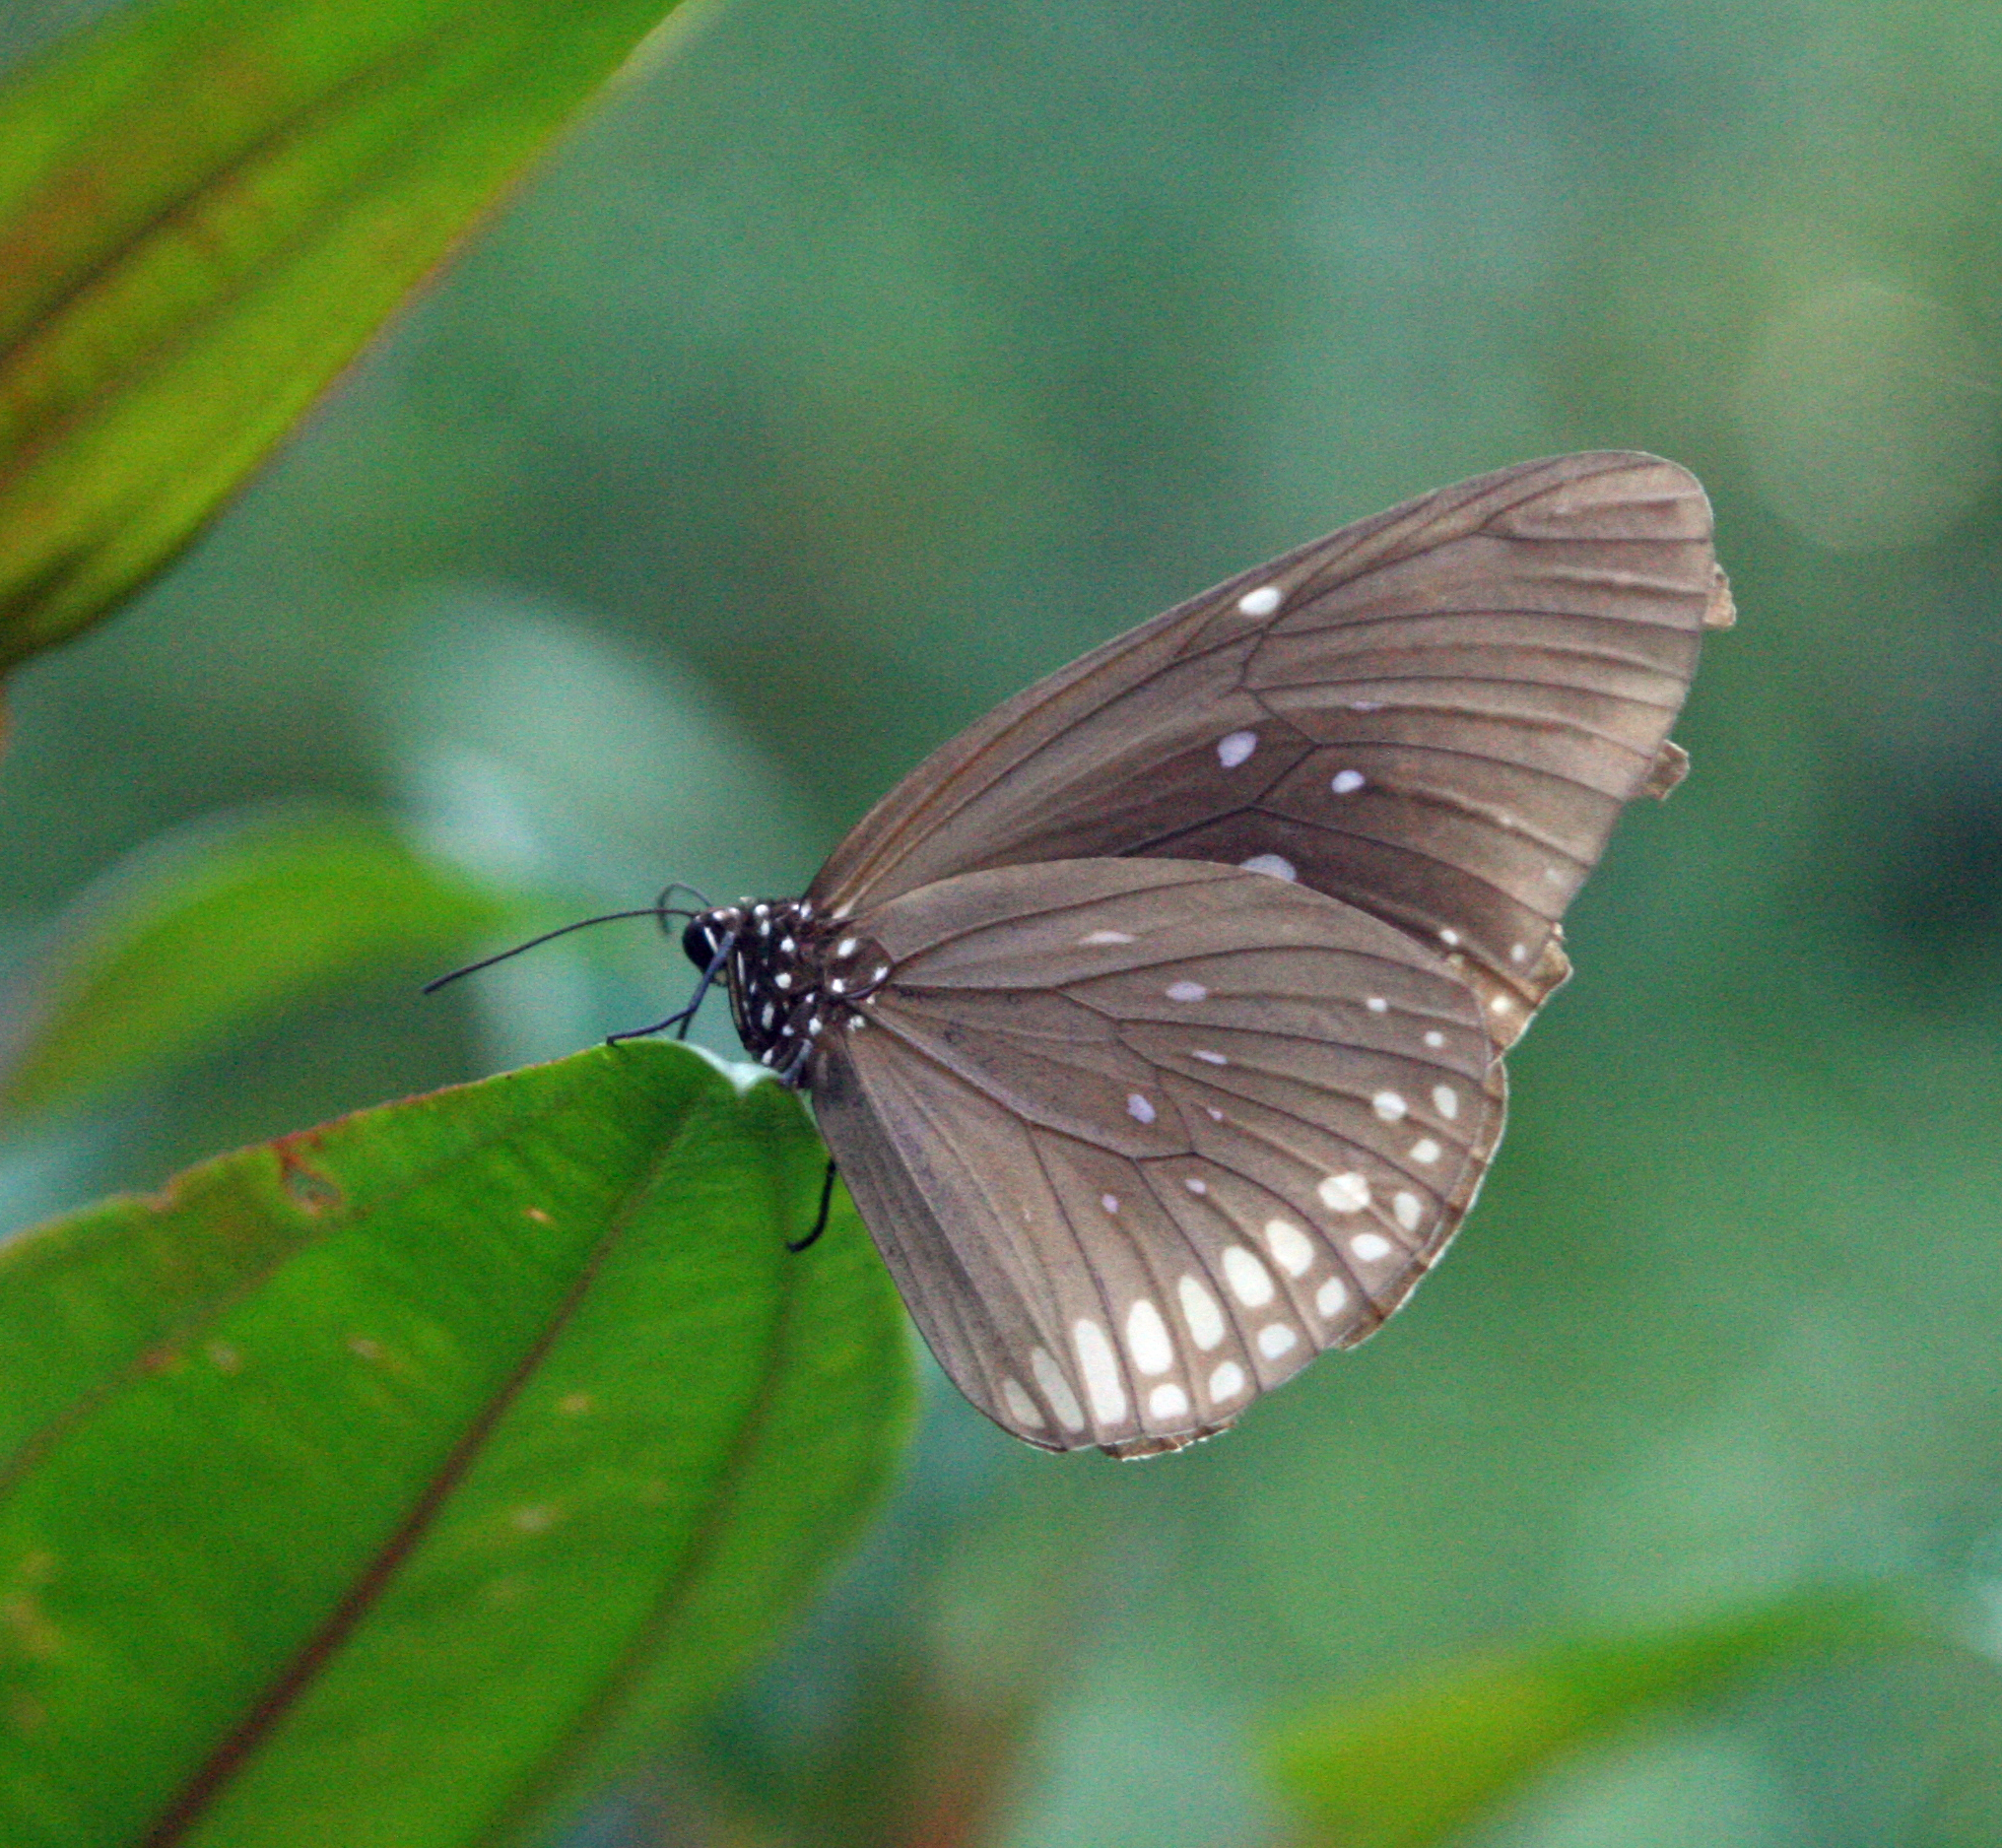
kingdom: Animalia
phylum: Arthropoda
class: Insecta
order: Lepidoptera
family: Nymphalidae
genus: Euploea
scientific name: Euploea algea
